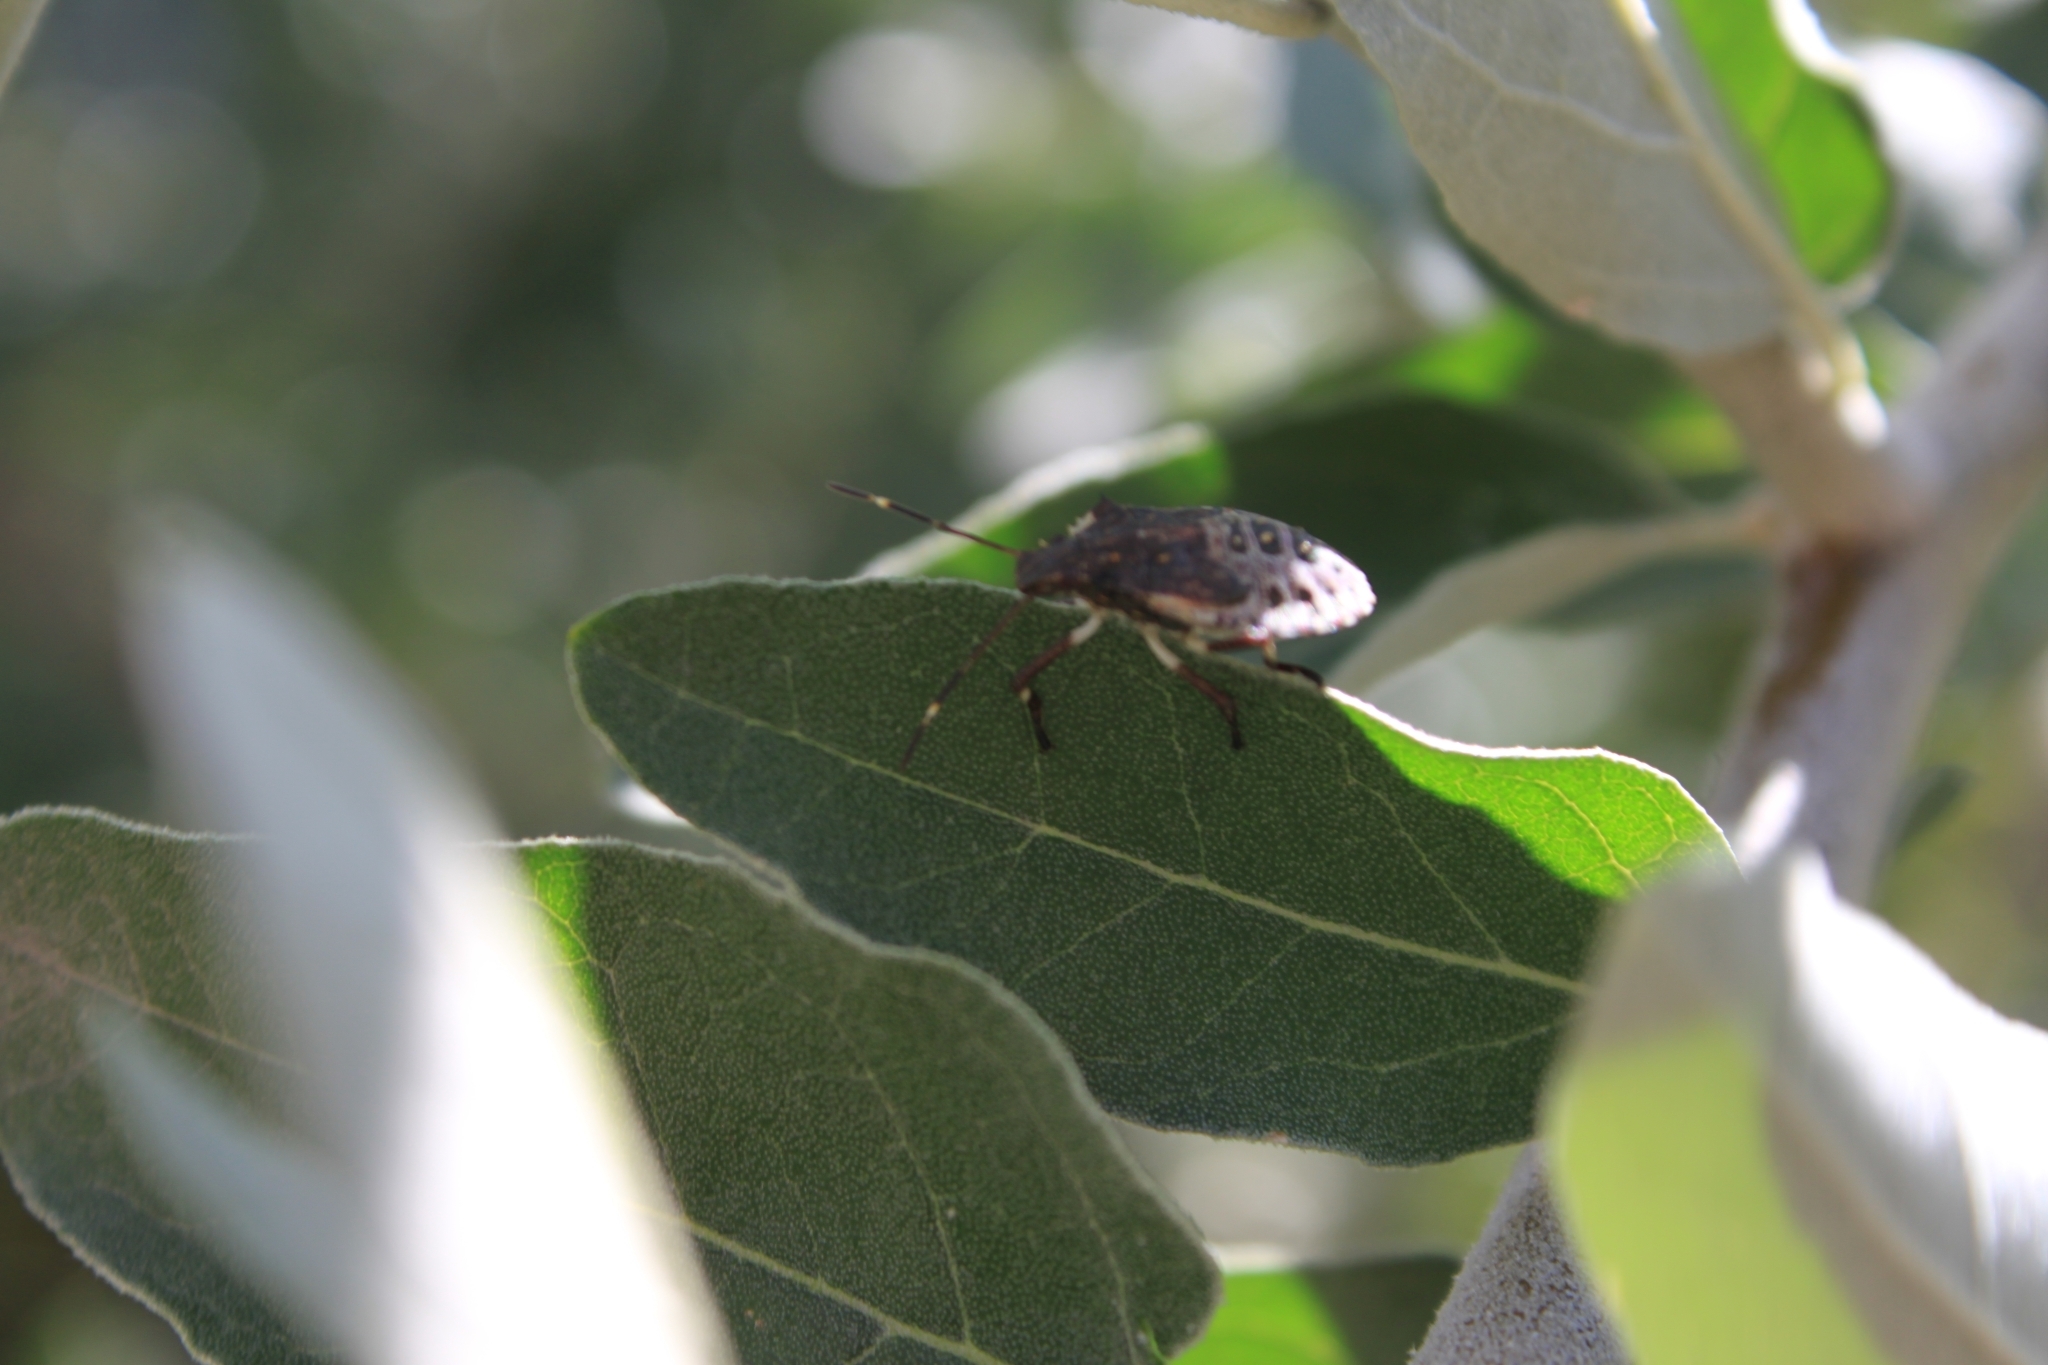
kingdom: Animalia
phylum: Arthropoda
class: Insecta
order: Hemiptera
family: Pentatomidae
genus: Halyomorpha
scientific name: Halyomorpha halys
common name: Brown marmorated stink bug
